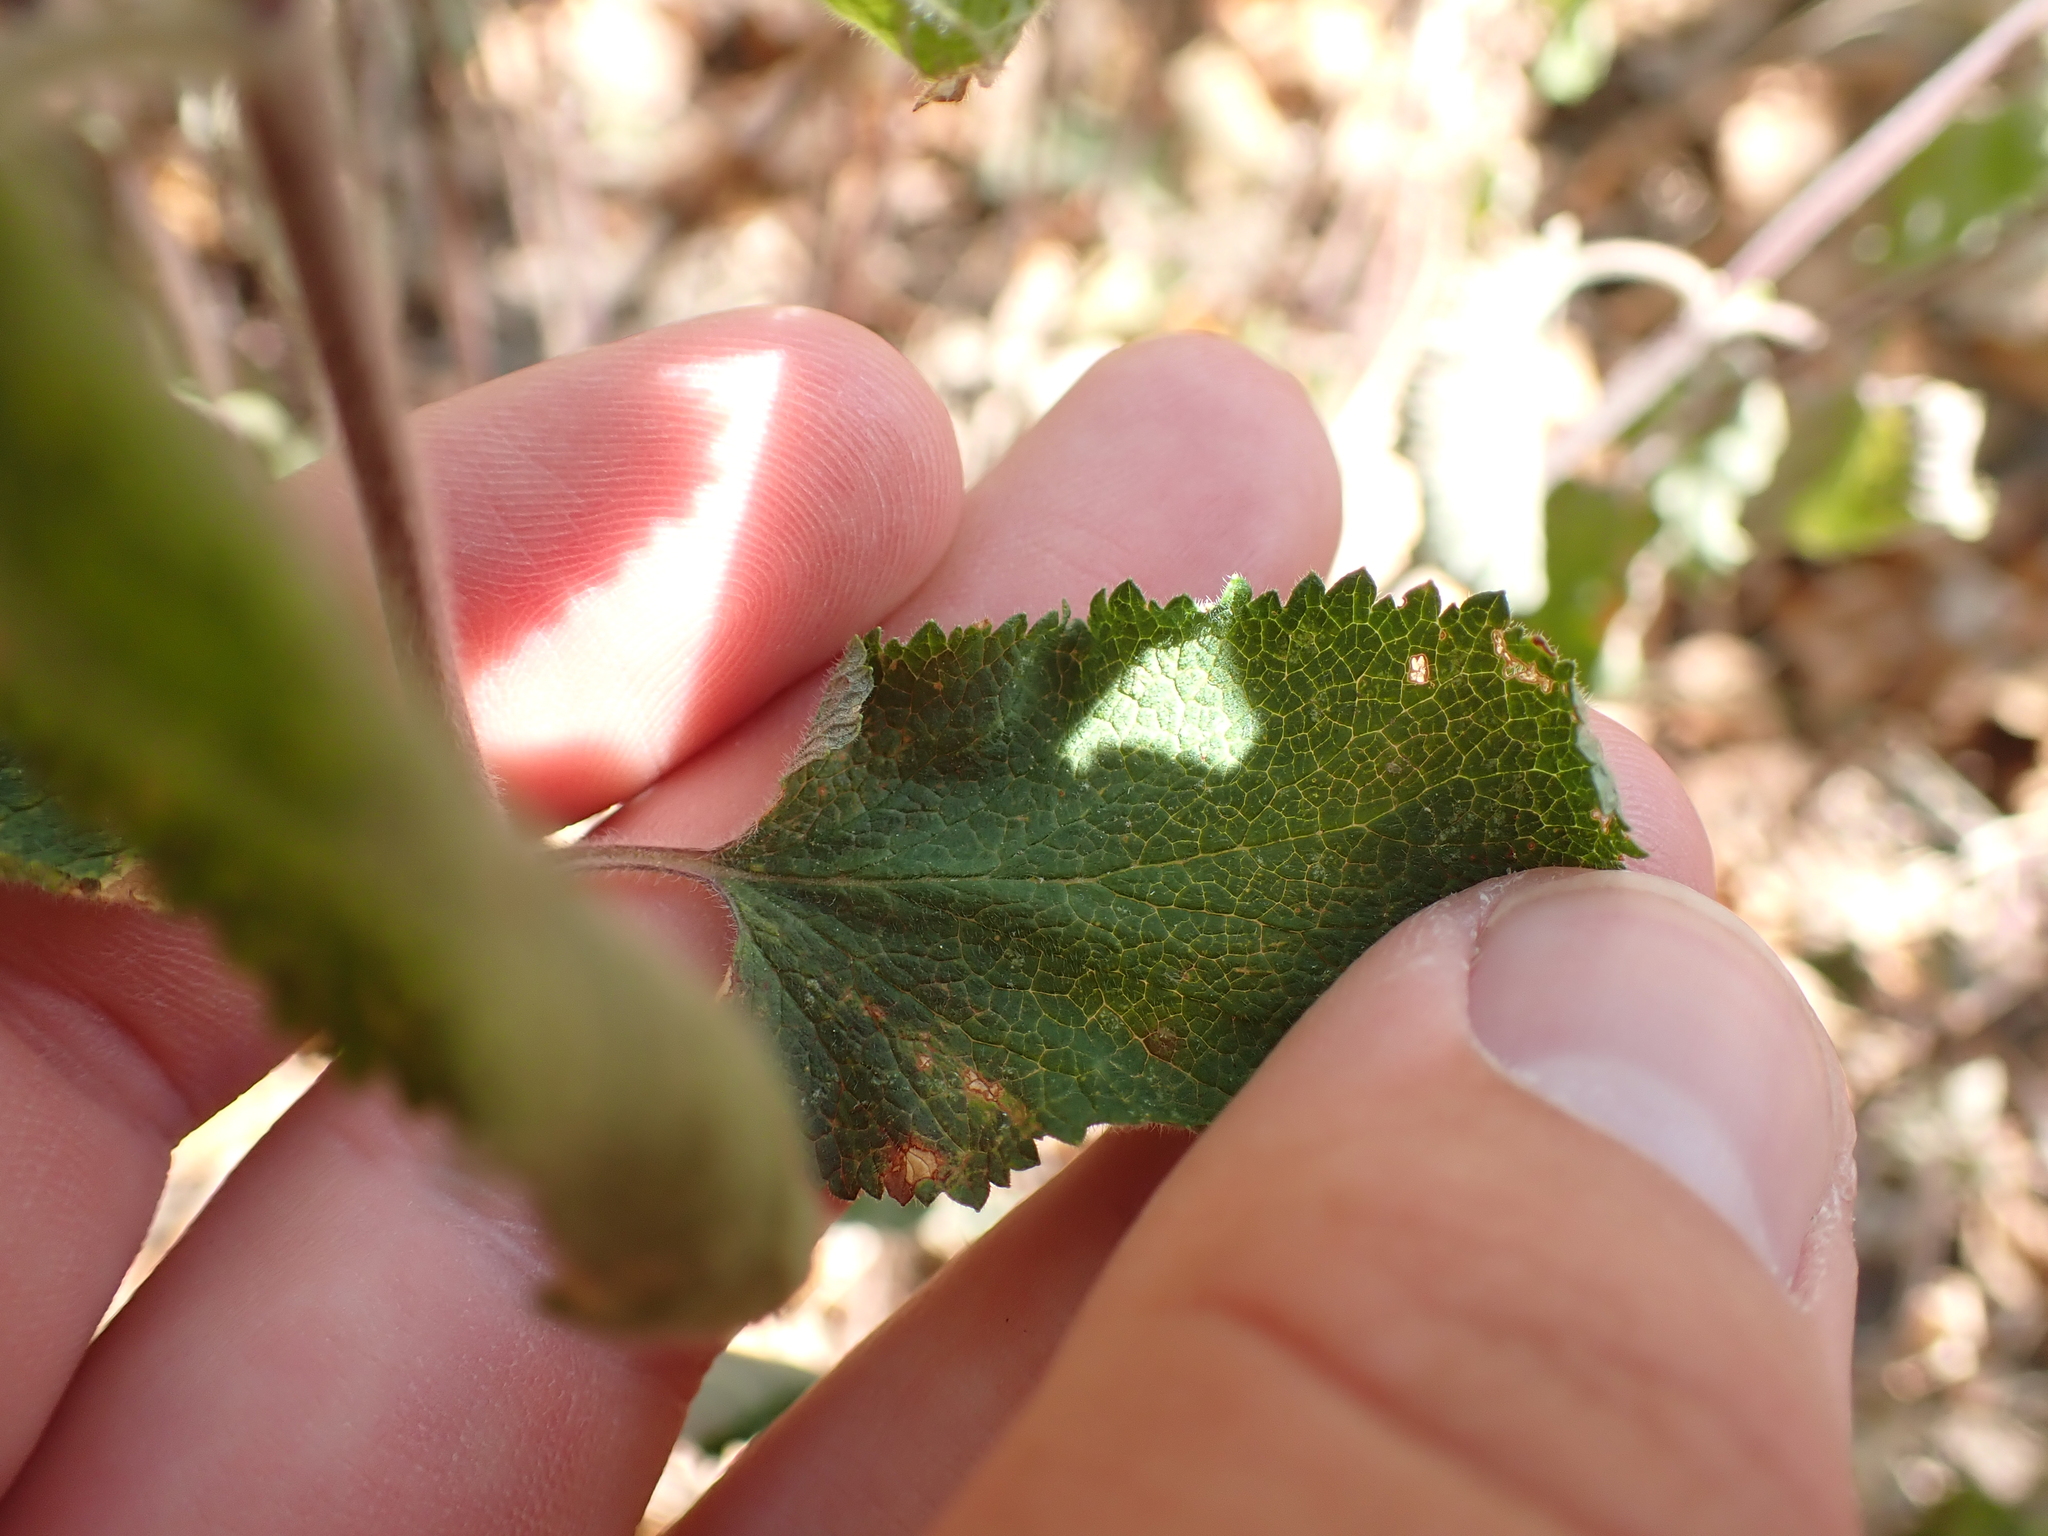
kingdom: Plantae
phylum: Tracheophyta
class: Magnoliopsida
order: Lamiales
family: Lamiaceae
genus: Teucrium
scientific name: Teucrium scorodonia
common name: Woodland germander
